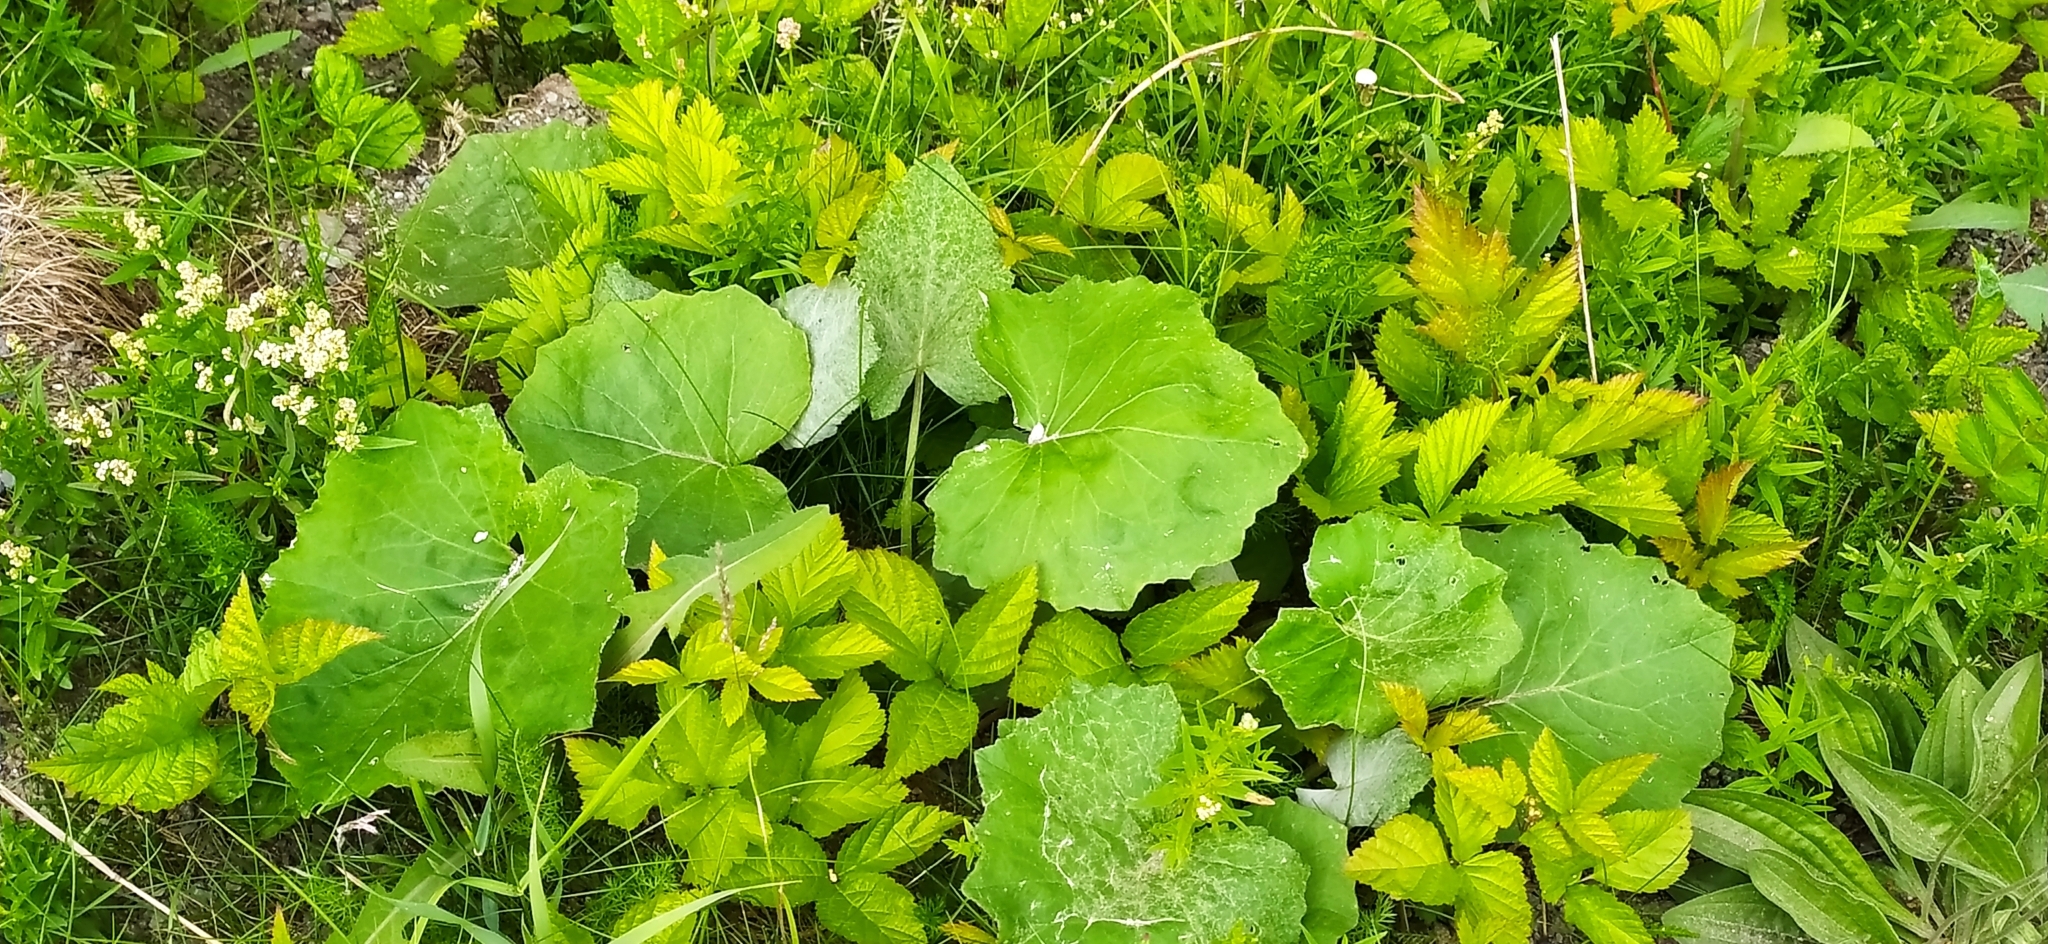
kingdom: Plantae
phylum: Tracheophyta
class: Magnoliopsida
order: Asterales
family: Asteraceae
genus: Tussilago
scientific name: Tussilago farfara
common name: Coltsfoot
